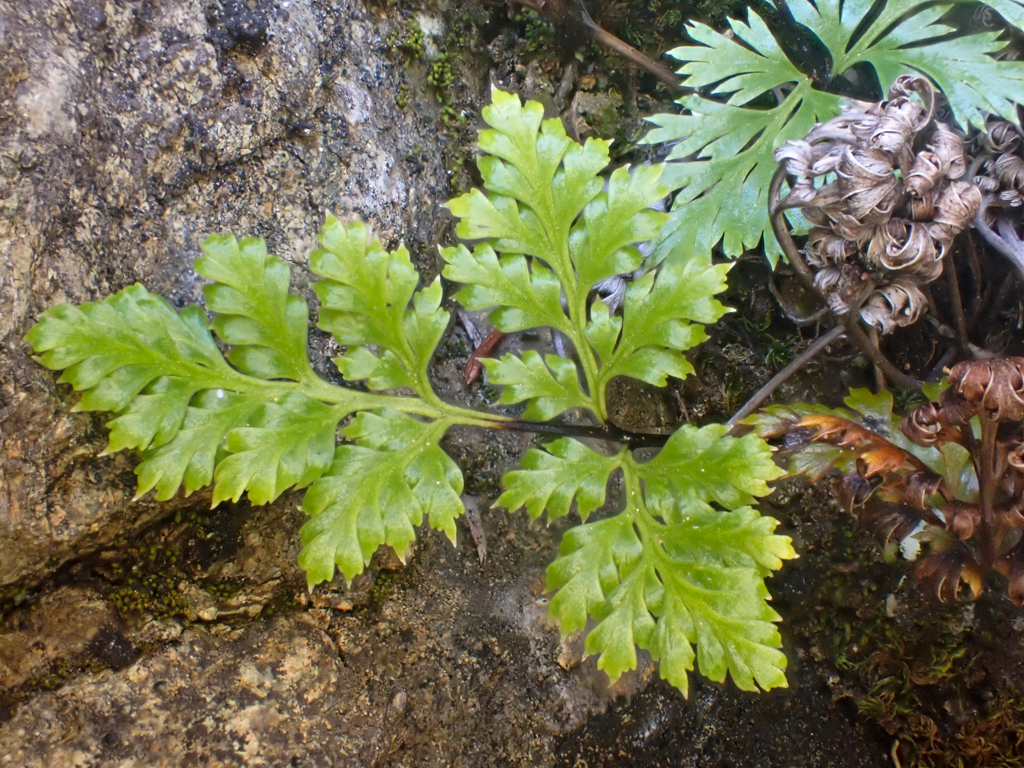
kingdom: Plantae
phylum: Tracheophyta
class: Polypodiopsida
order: Polypodiales
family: Pteridaceae
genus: Aspidotis
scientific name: Aspidotis californica
